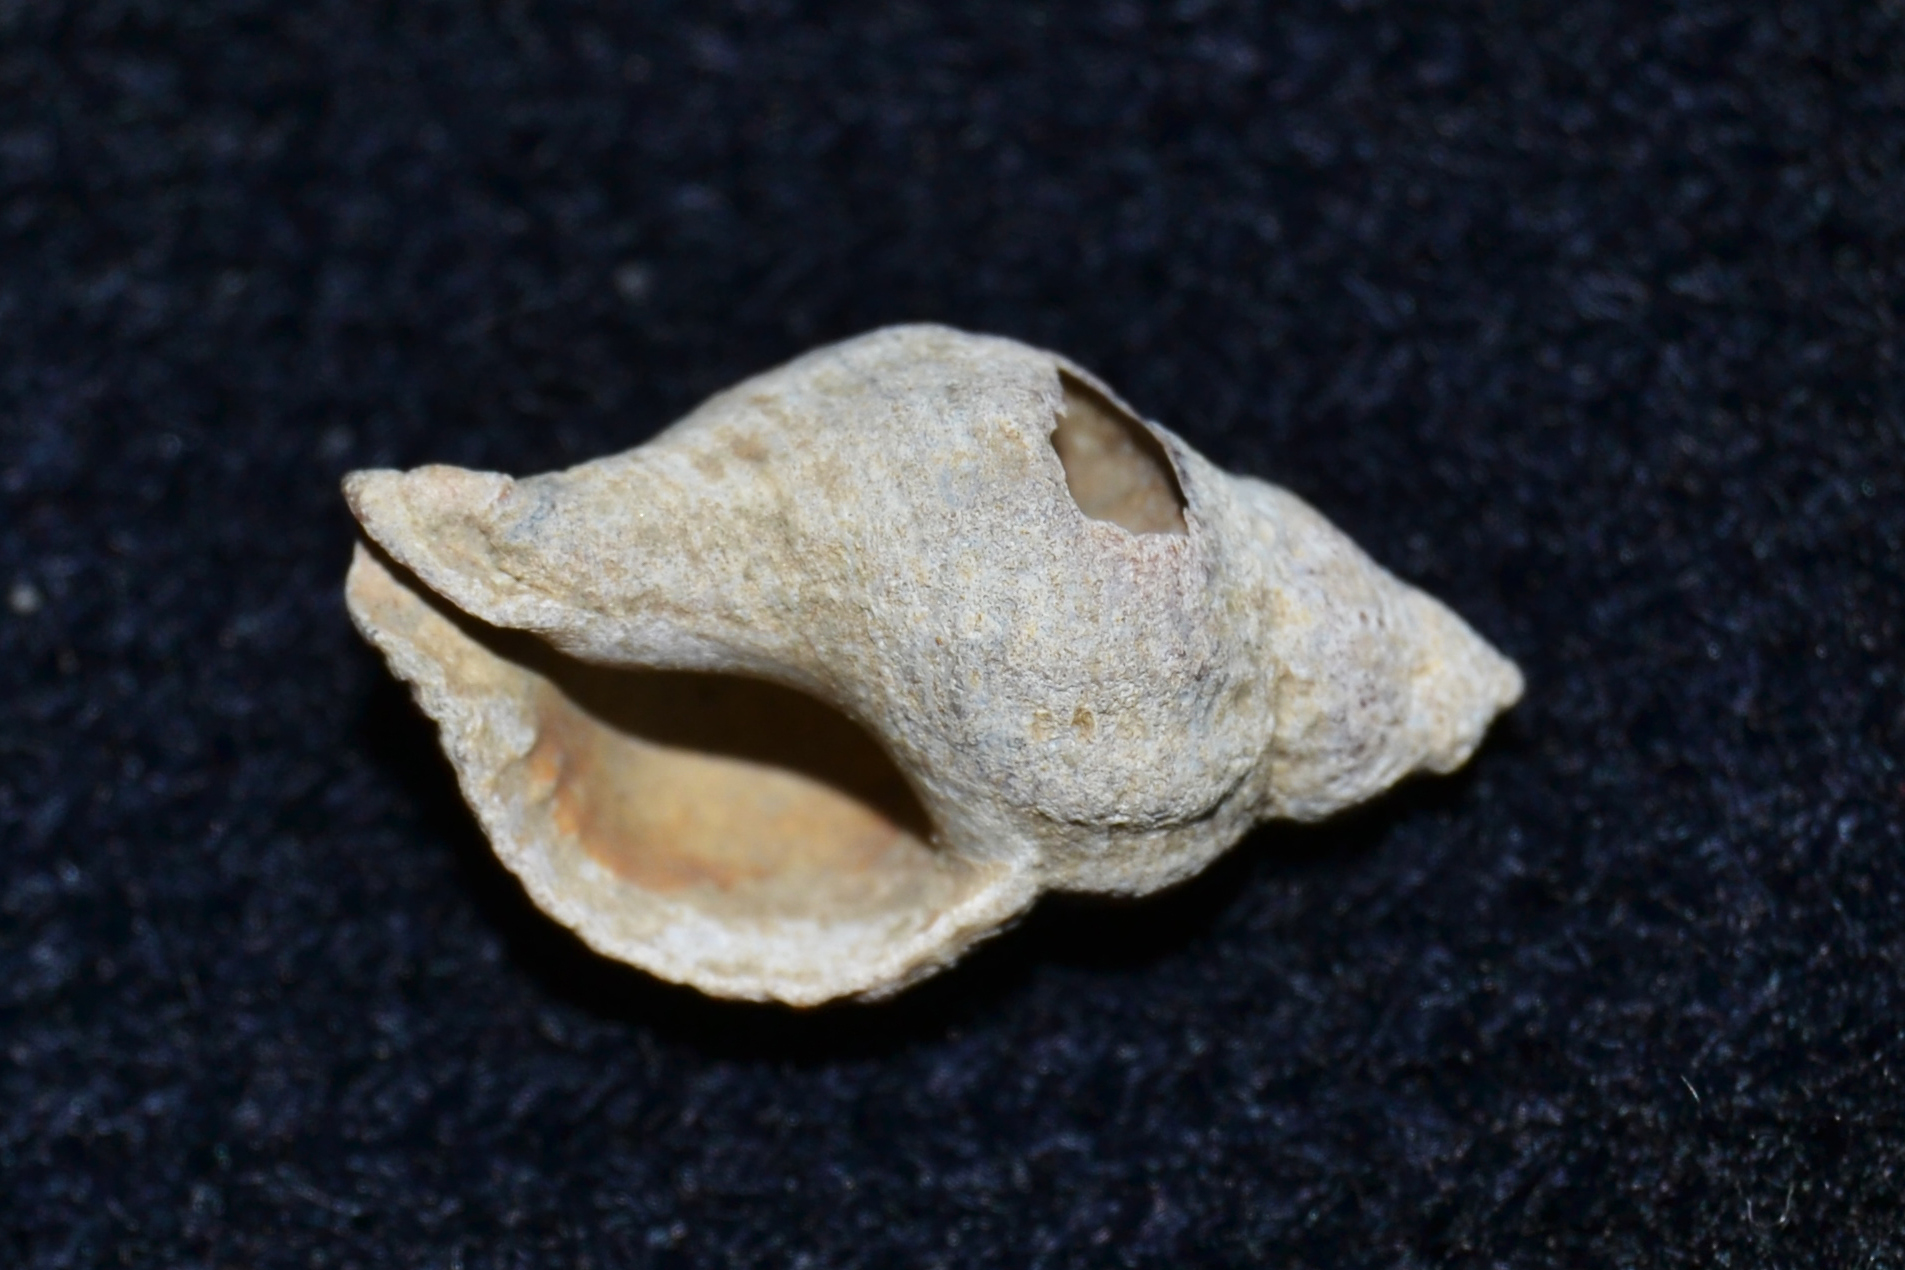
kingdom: Animalia
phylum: Mollusca
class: Gastropoda
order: Neogastropoda
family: Muricidae
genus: Urosalpinx
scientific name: Urosalpinx cinerea
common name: American sting winkle
